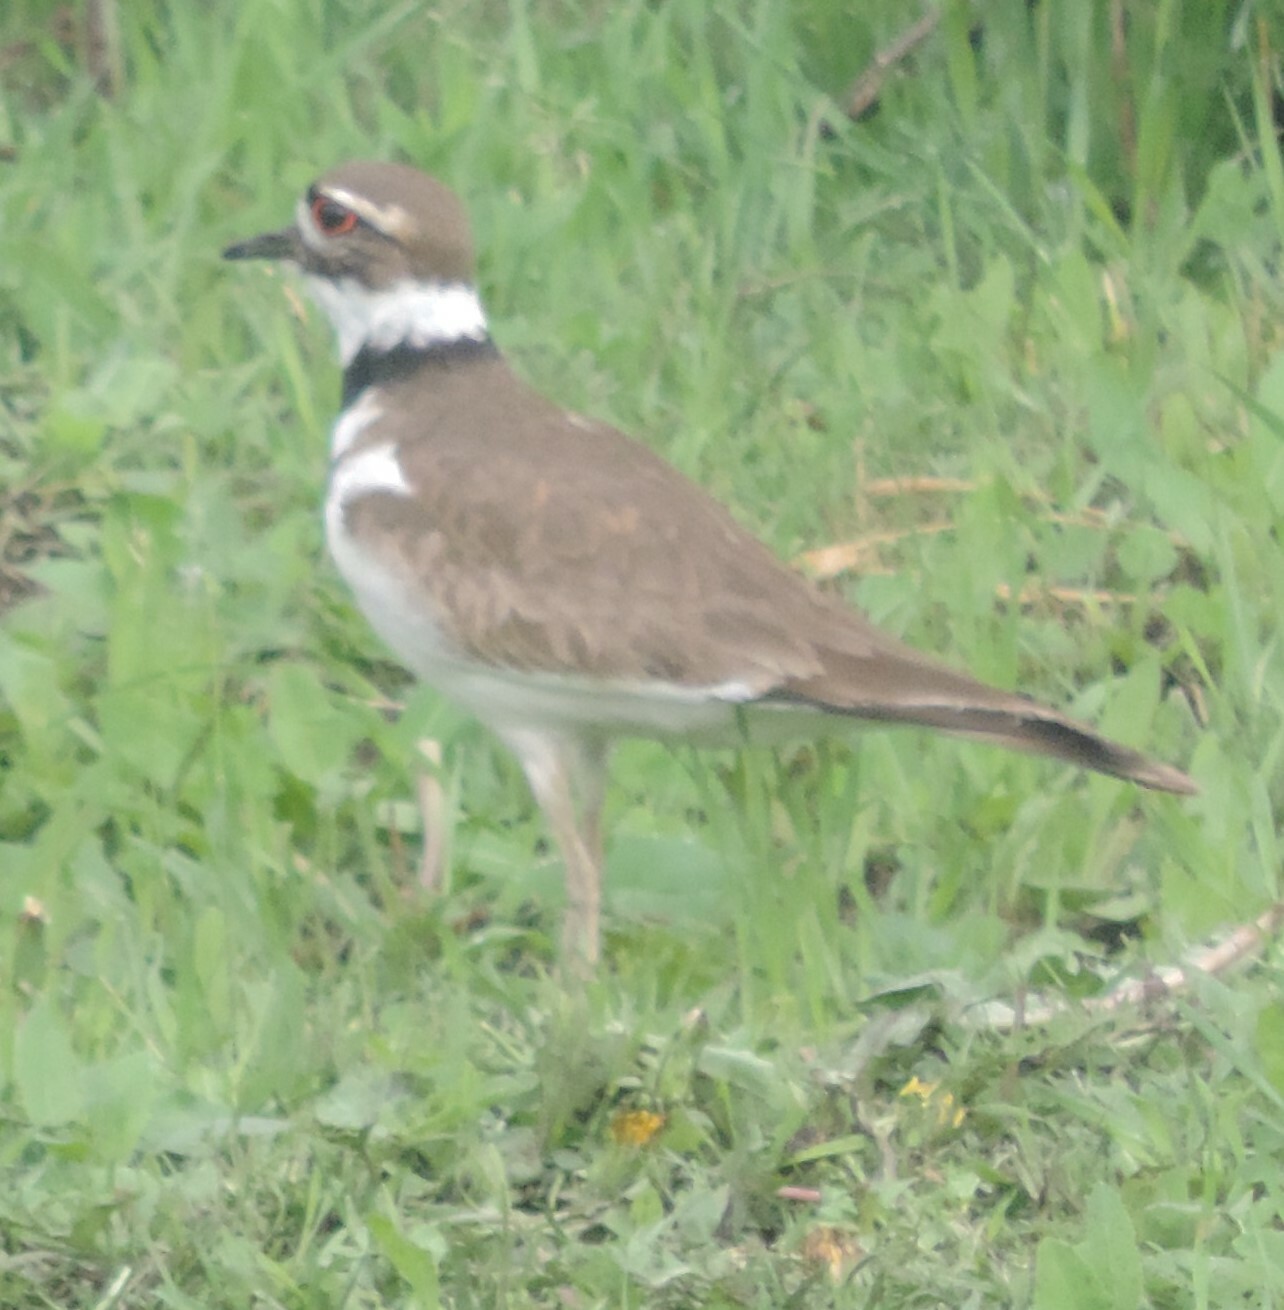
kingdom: Animalia
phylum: Chordata
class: Aves
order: Charadriiformes
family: Charadriidae
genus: Charadrius
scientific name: Charadrius vociferus
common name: Killdeer
